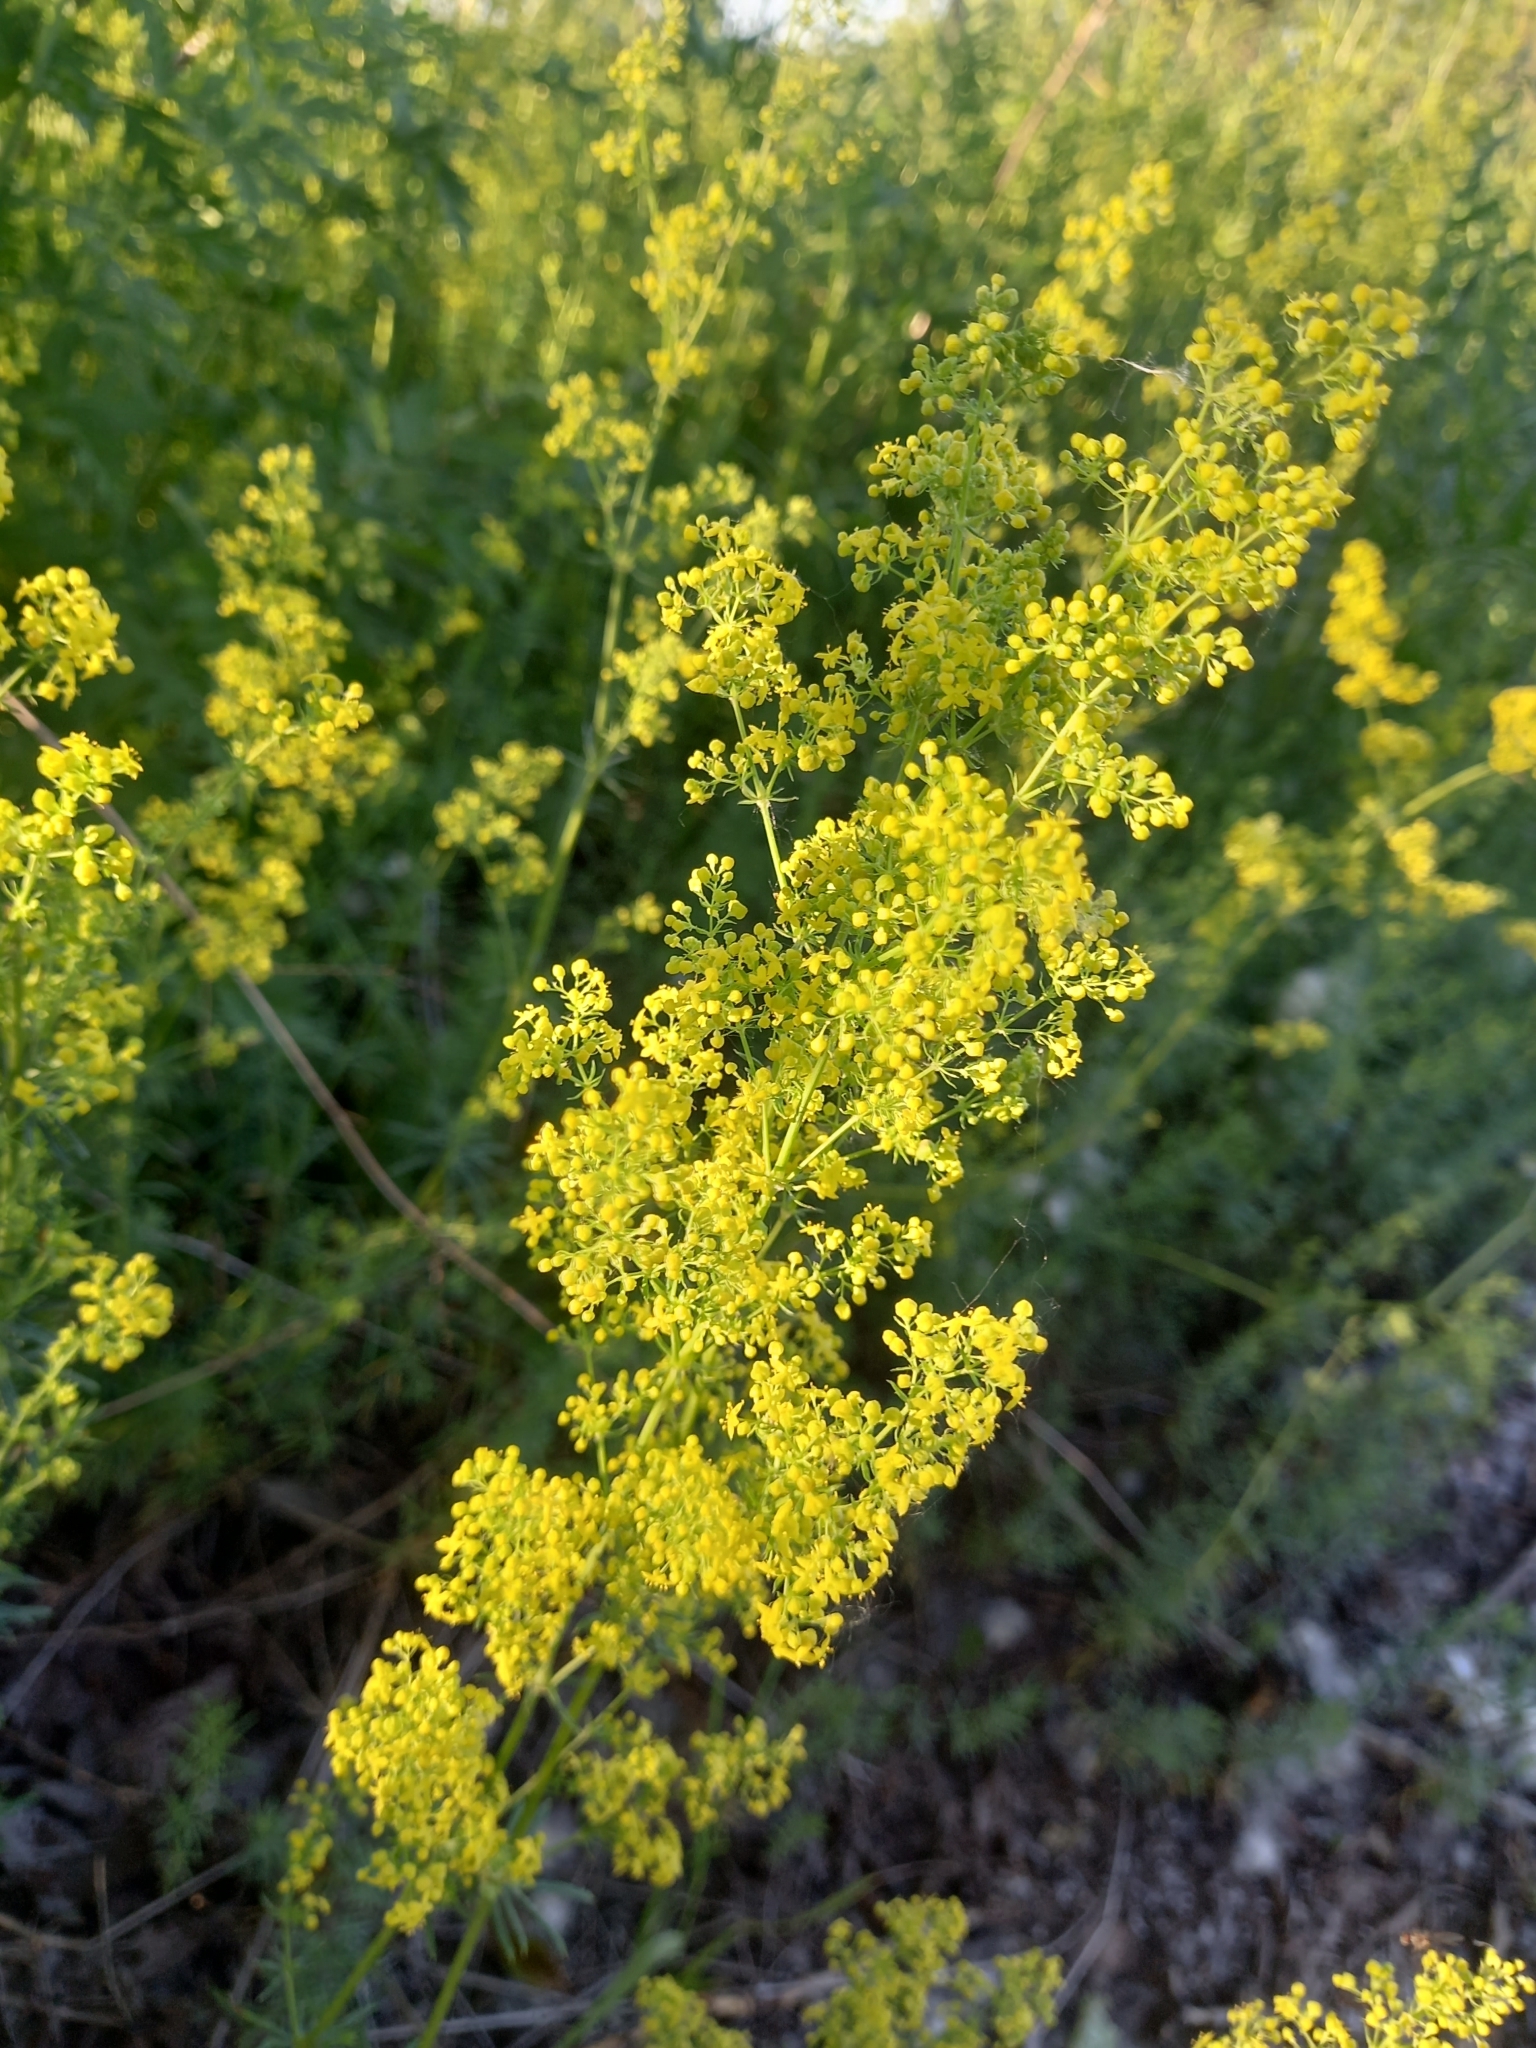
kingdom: Plantae
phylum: Tracheophyta
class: Magnoliopsida
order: Gentianales
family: Rubiaceae
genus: Galium
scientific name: Galium verum
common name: Lady's bedstraw
